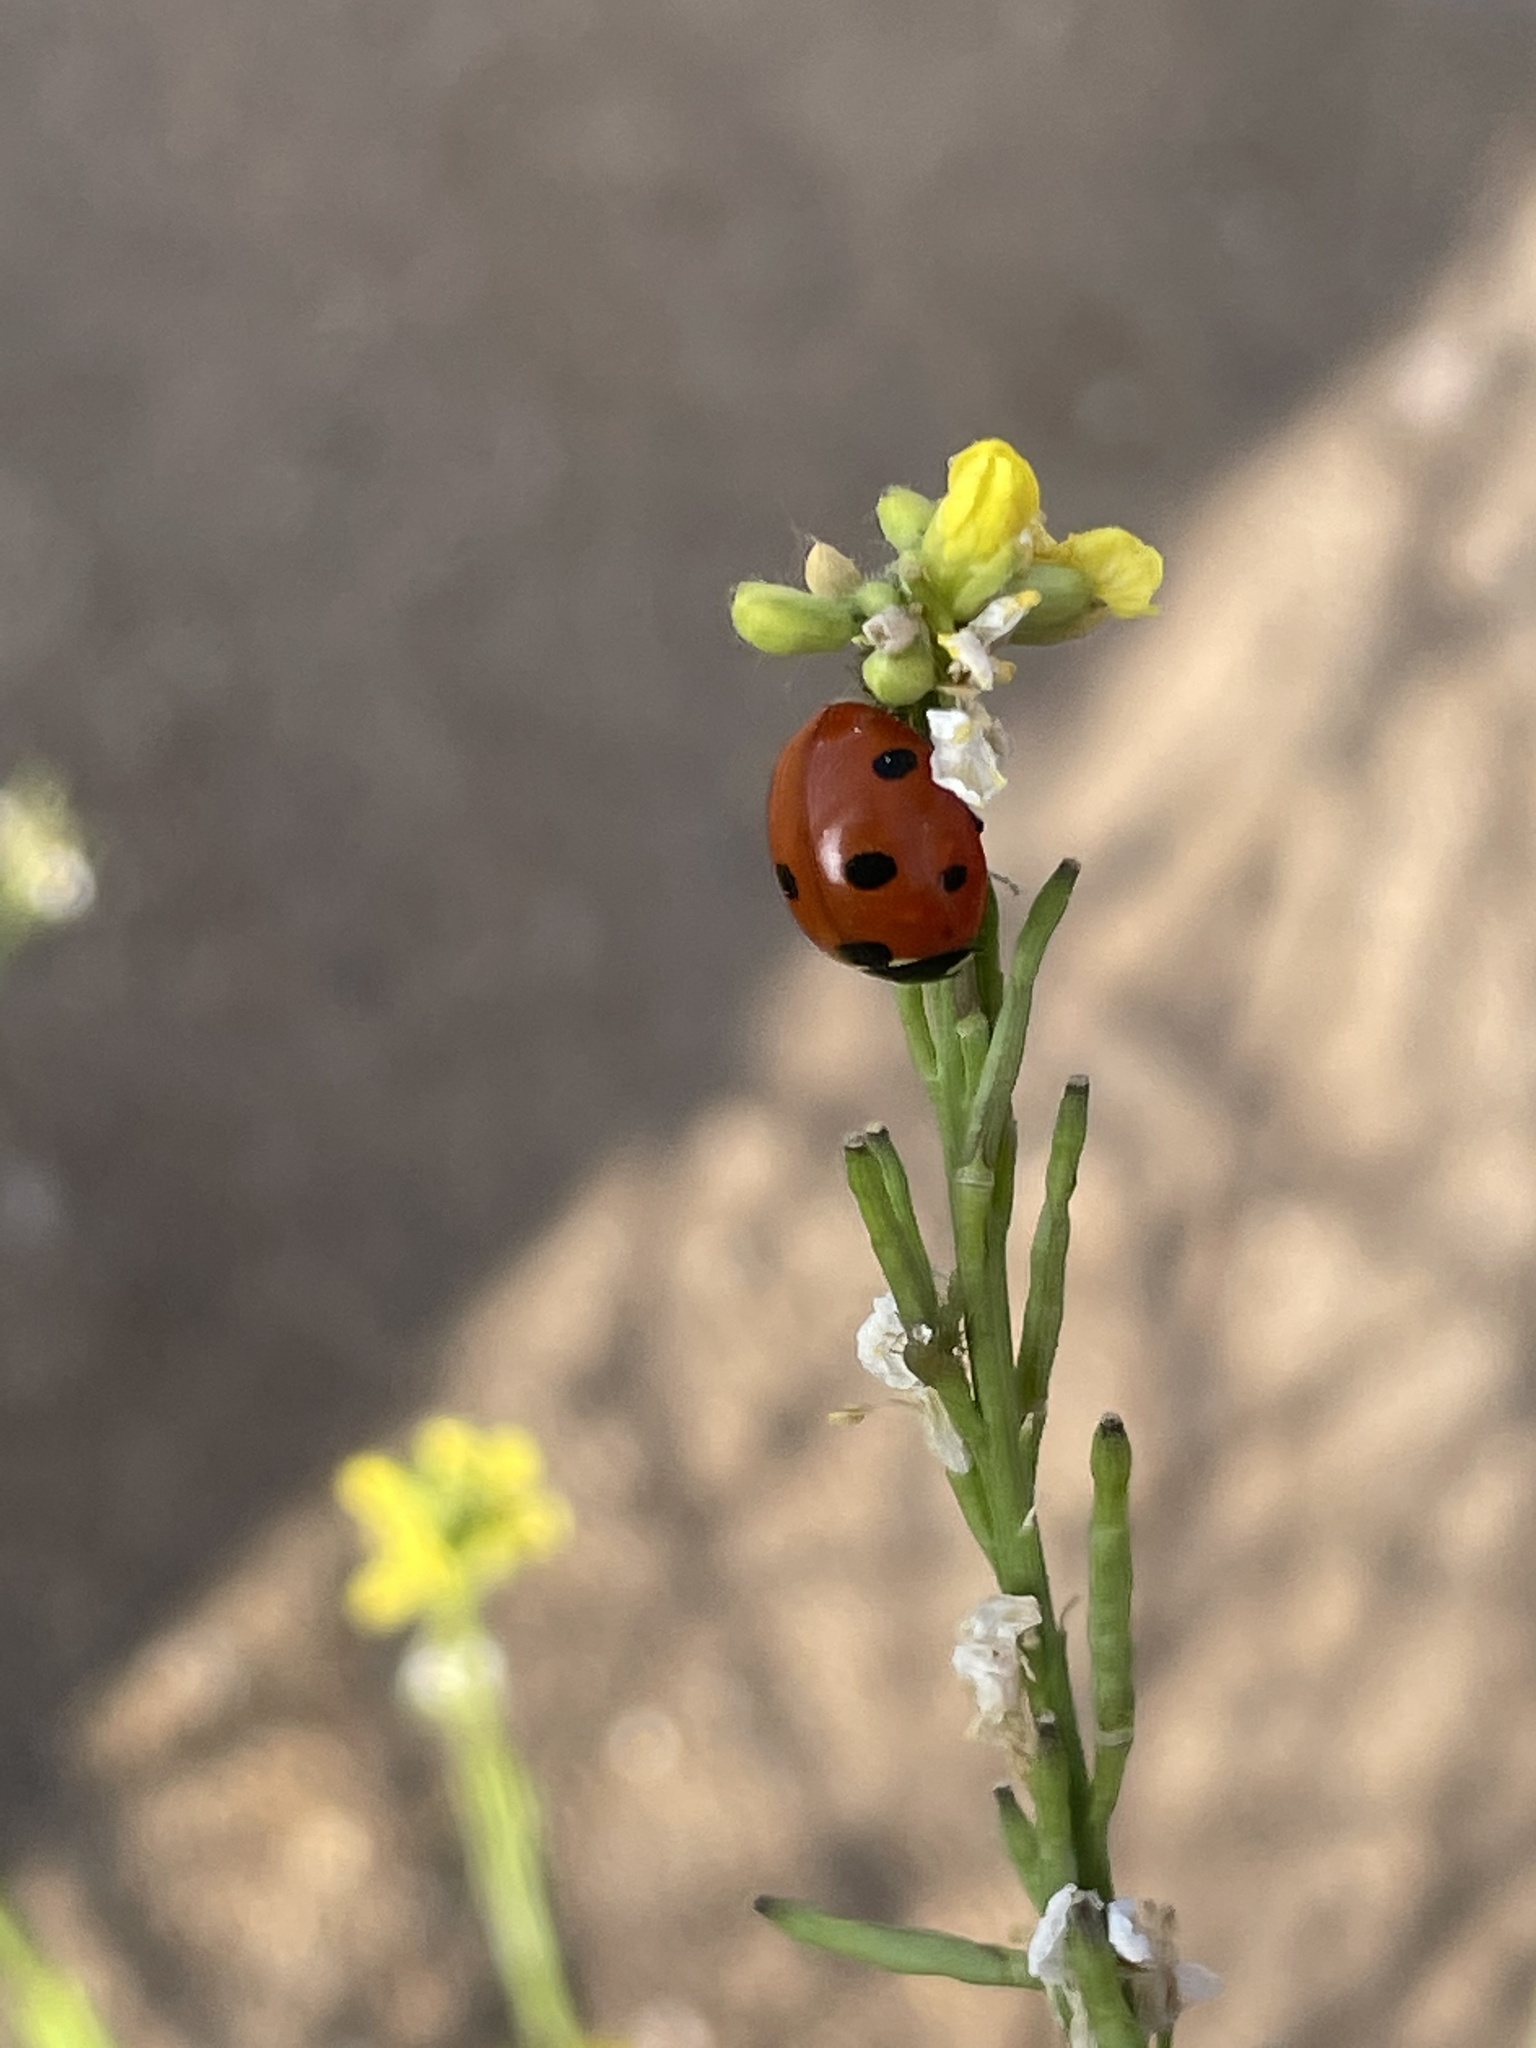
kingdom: Animalia
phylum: Arthropoda
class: Insecta
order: Coleoptera
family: Coccinellidae
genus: Coccinella
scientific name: Coccinella septempunctata
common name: Sevenspotted lady beetle
